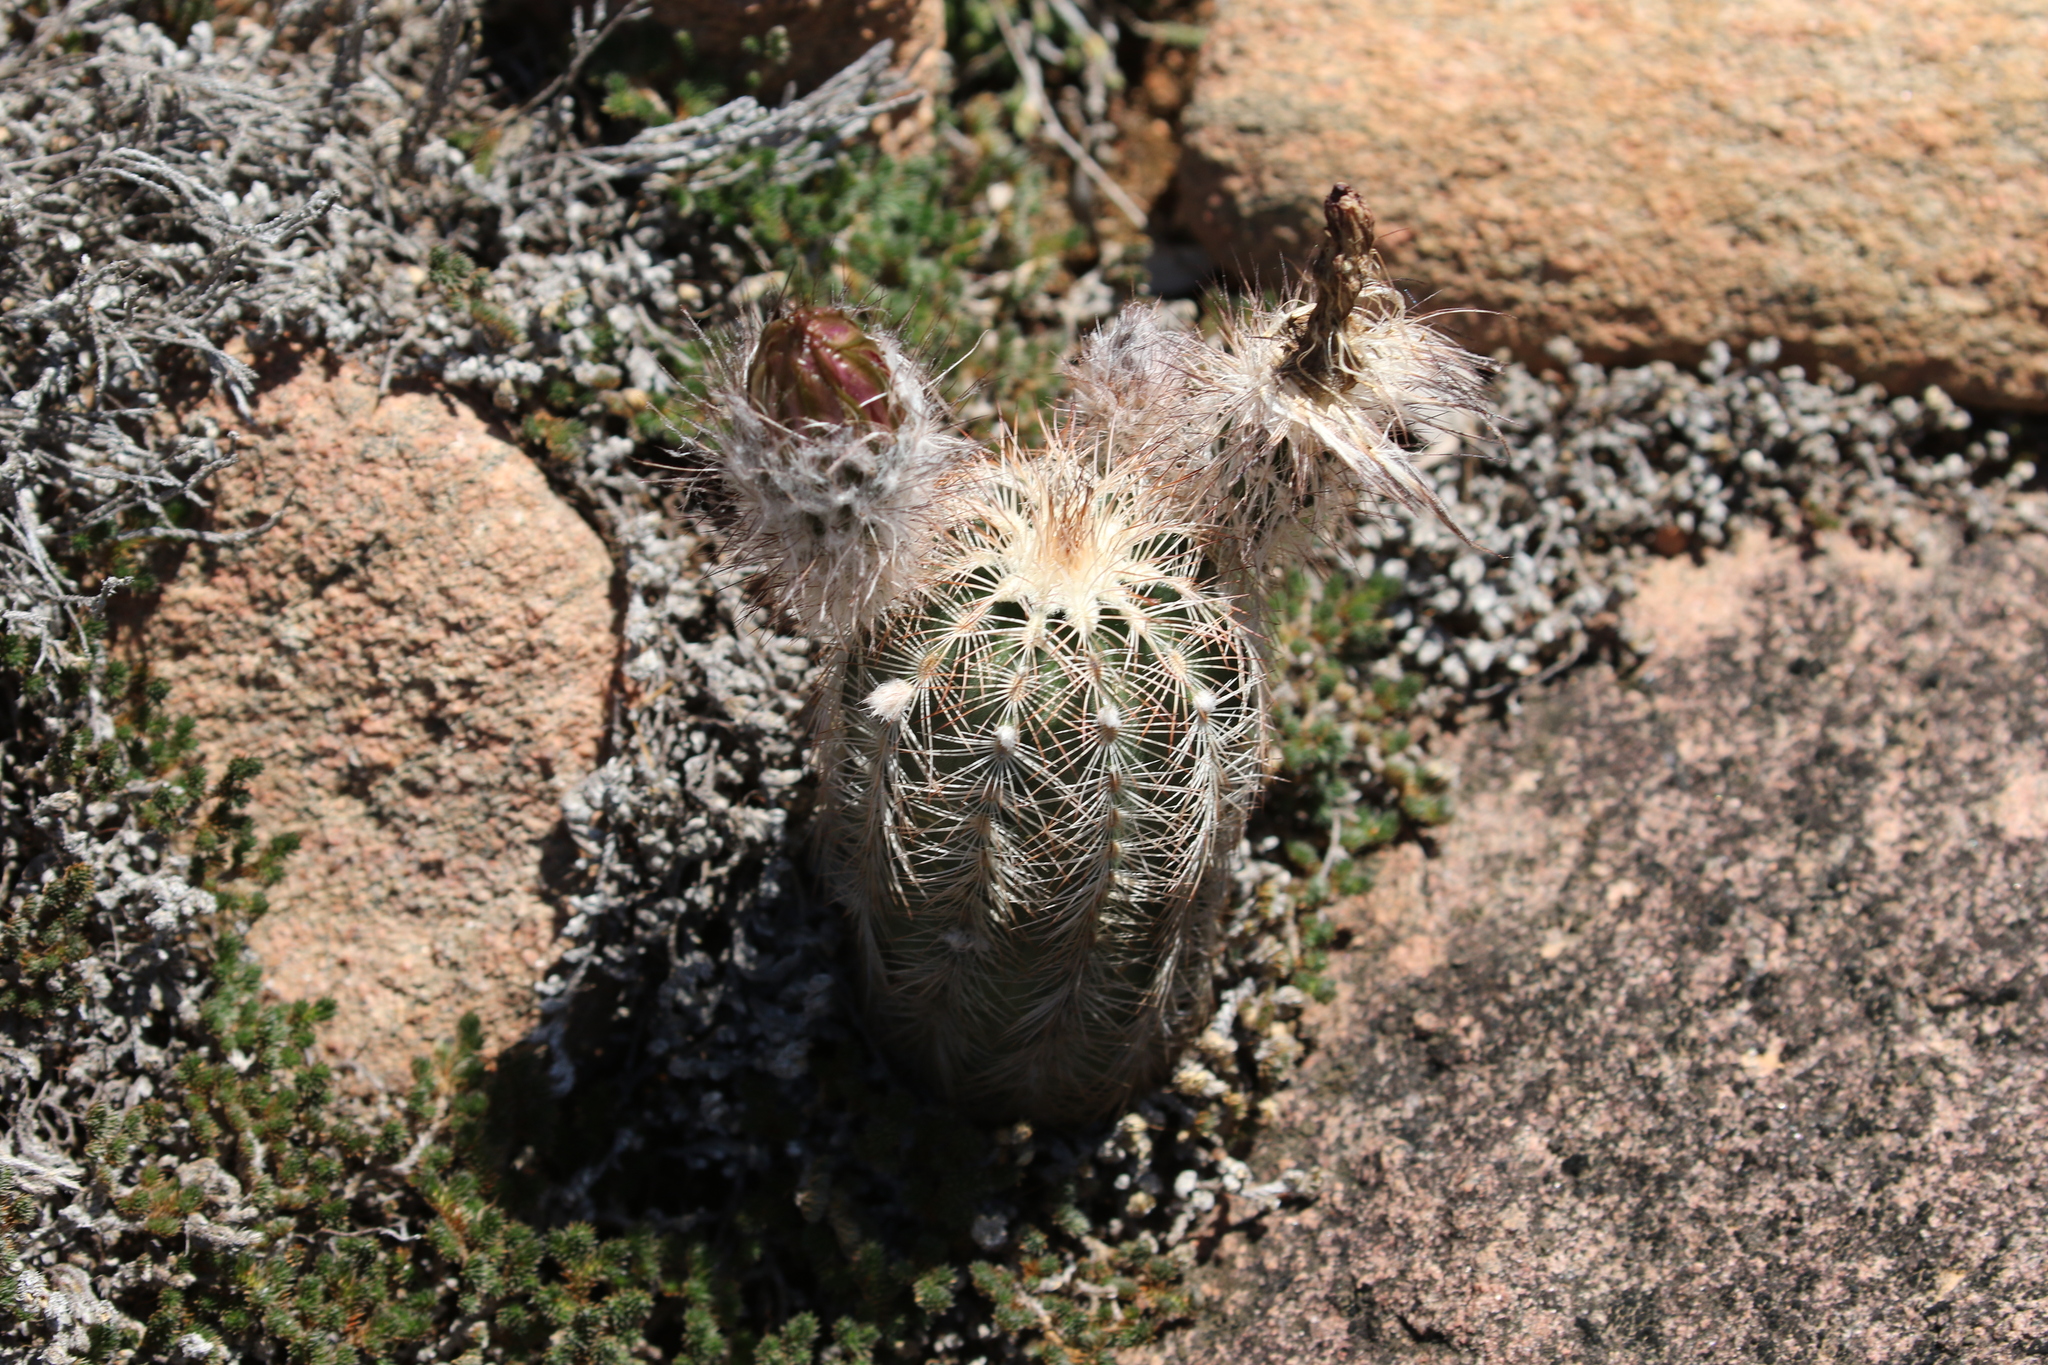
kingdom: Plantae
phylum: Tracheophyta
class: Magnoliopsida
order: Caryophyllales
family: Cactaceae
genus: Echinocereus
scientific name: Echinocereus reichenbachii
